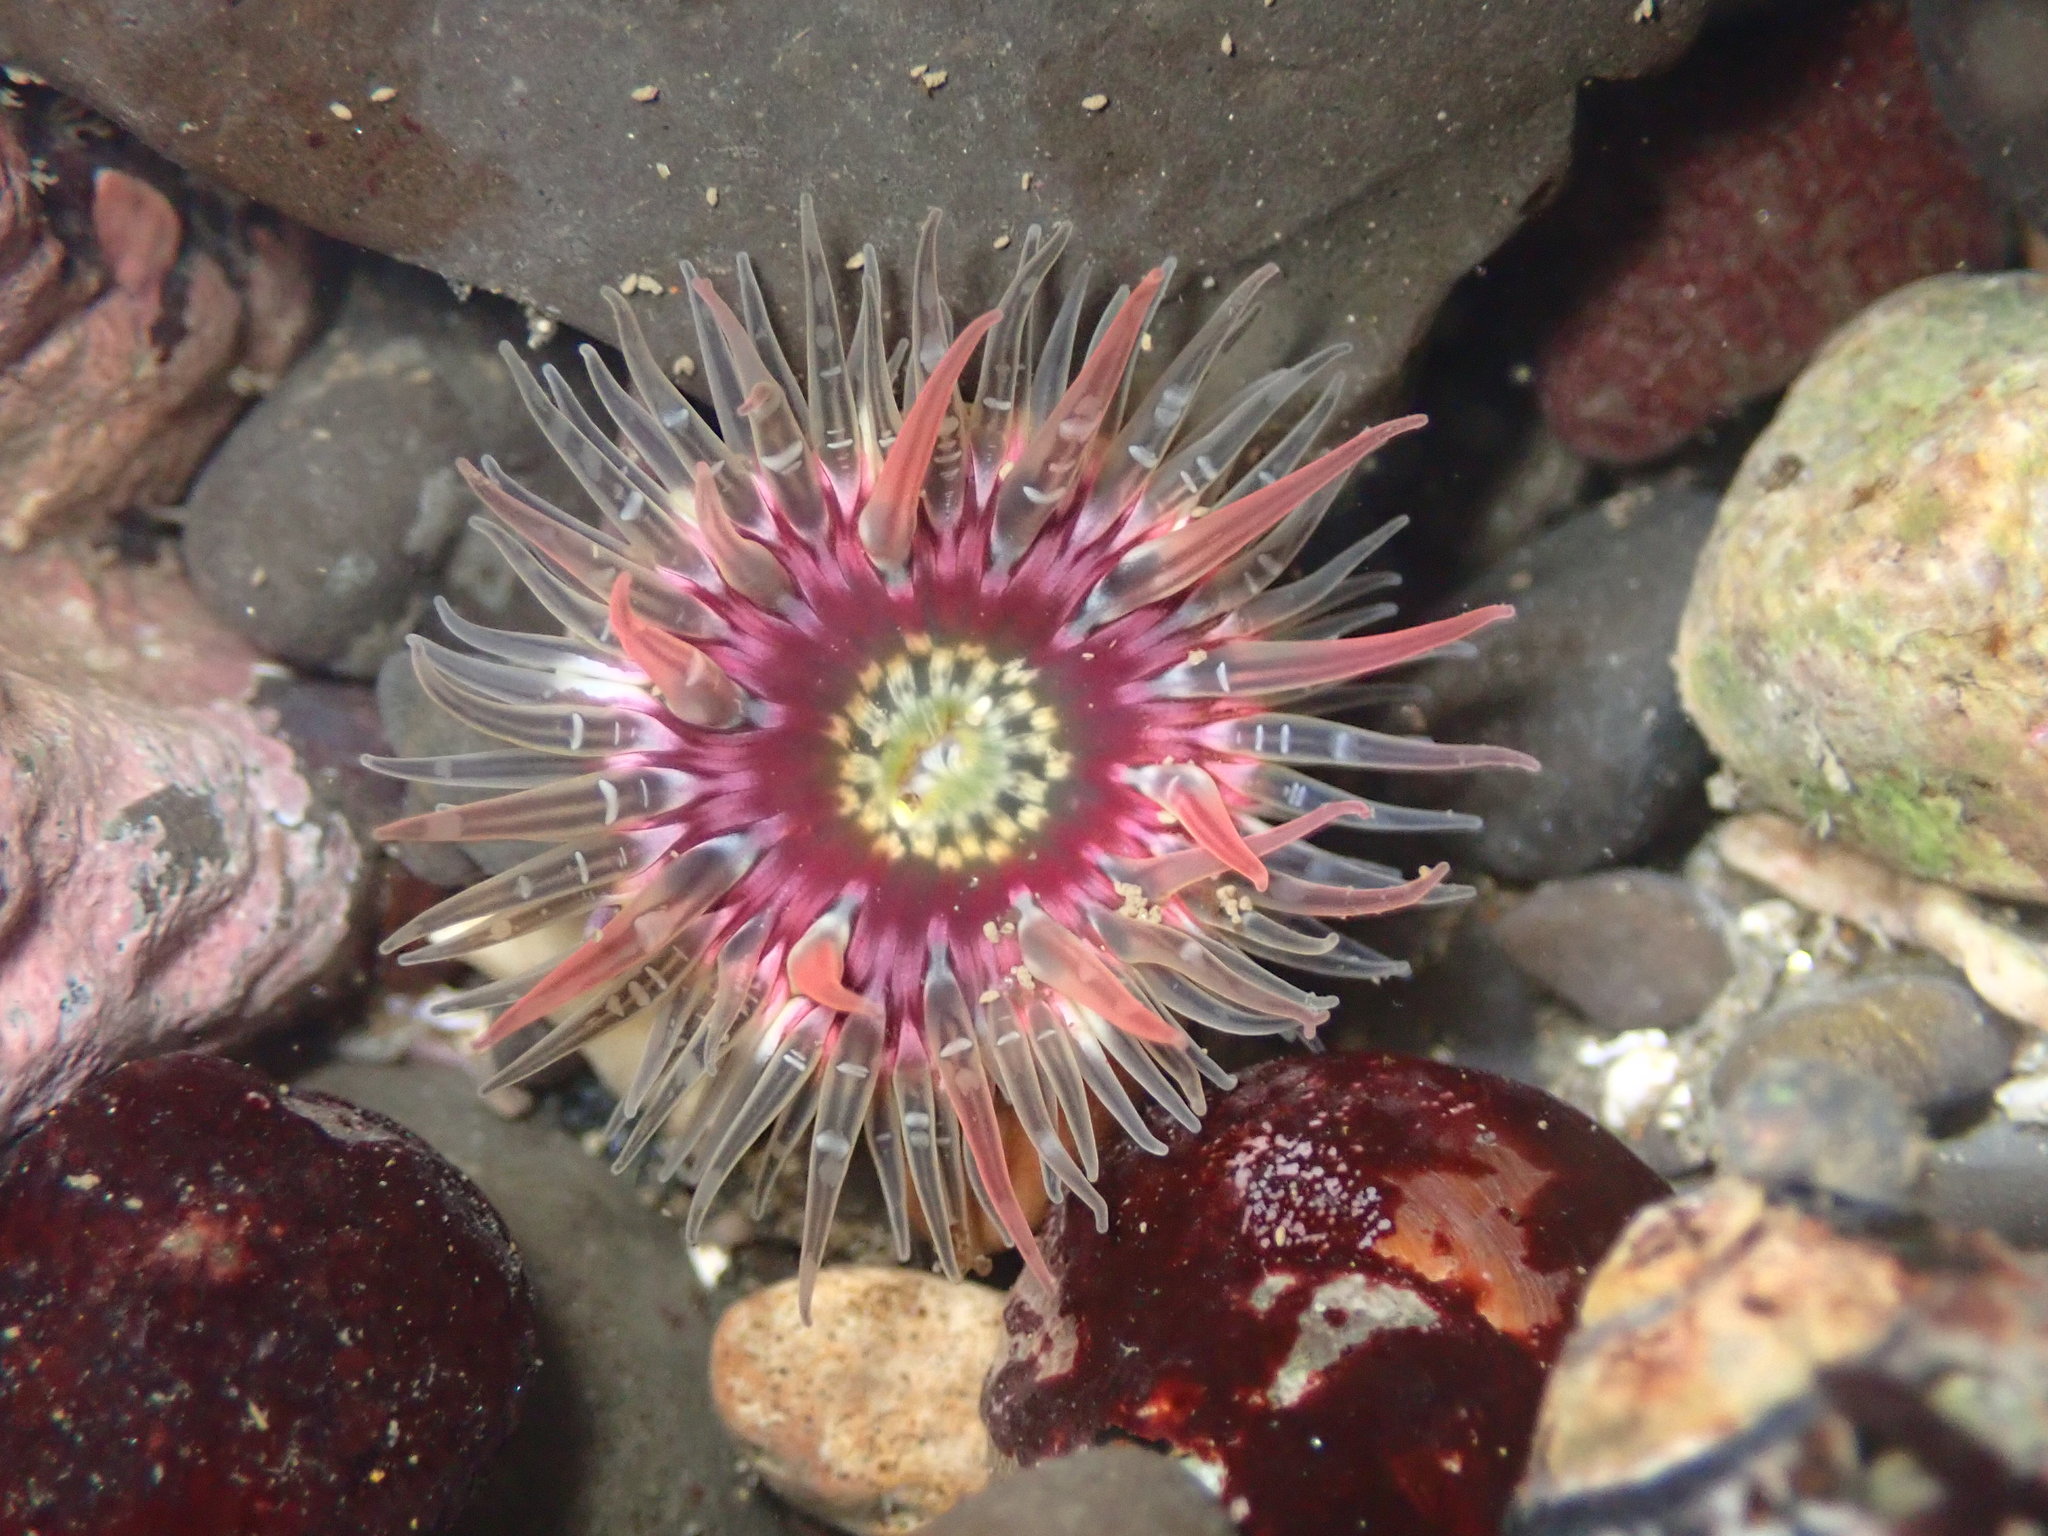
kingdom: Animalia
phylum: Cnidaria
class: Anthozoa
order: Actiniaria
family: Actiniidae
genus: Anthopleura
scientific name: Anthopleura artemisia
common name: Buried sea anemone
